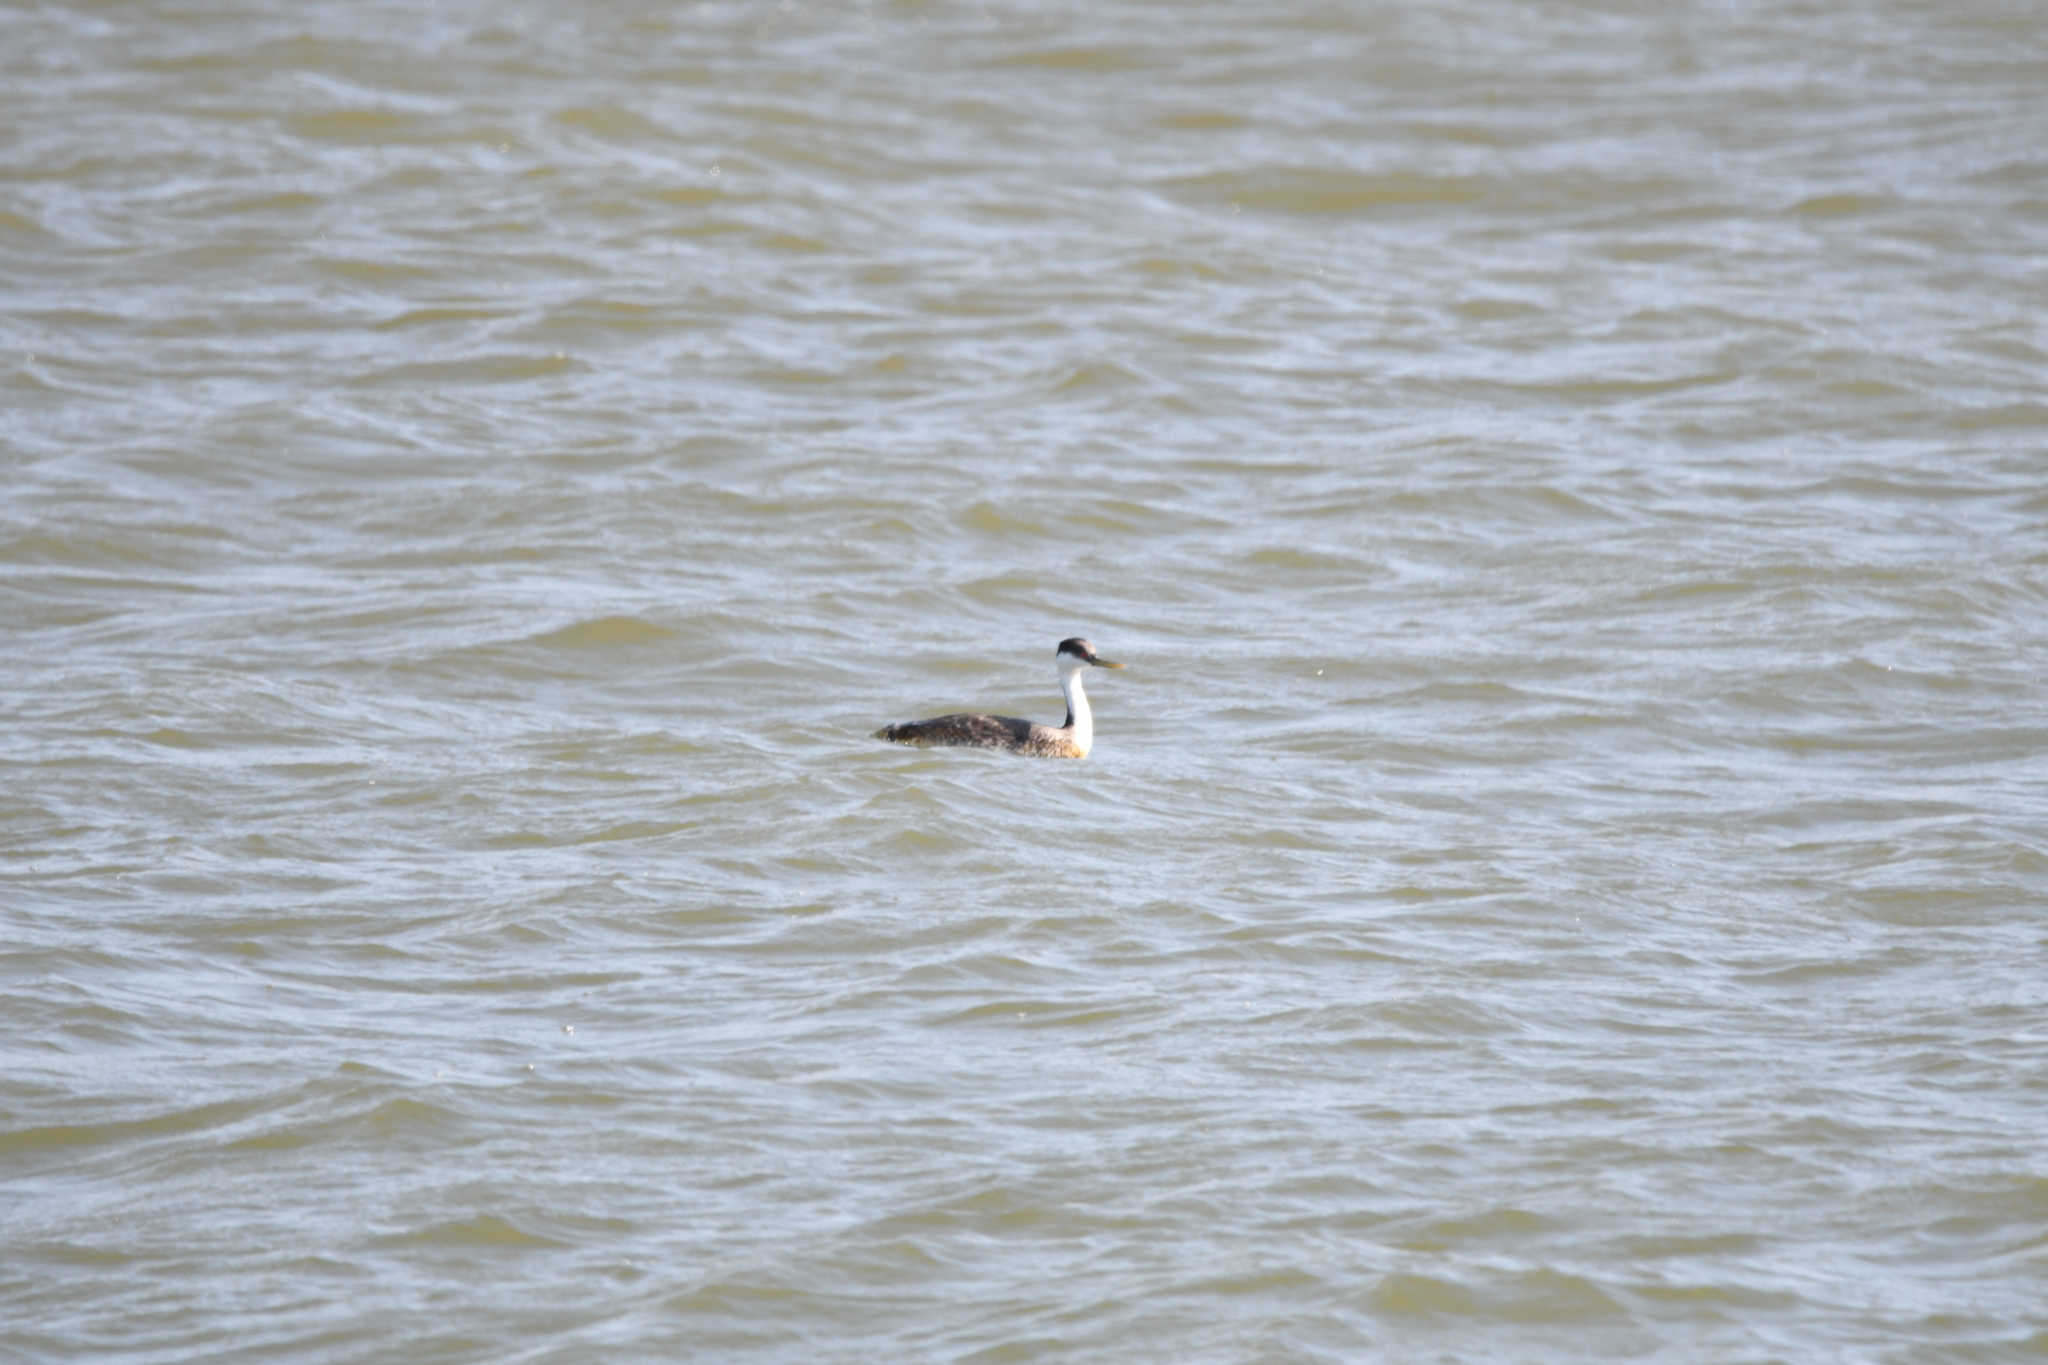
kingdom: Animalia
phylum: Chordata
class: Aves
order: Podicipediformes
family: Podicipedidae
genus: Aechmophorus
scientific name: Aechmophorus occidentalis
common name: Western grebe
